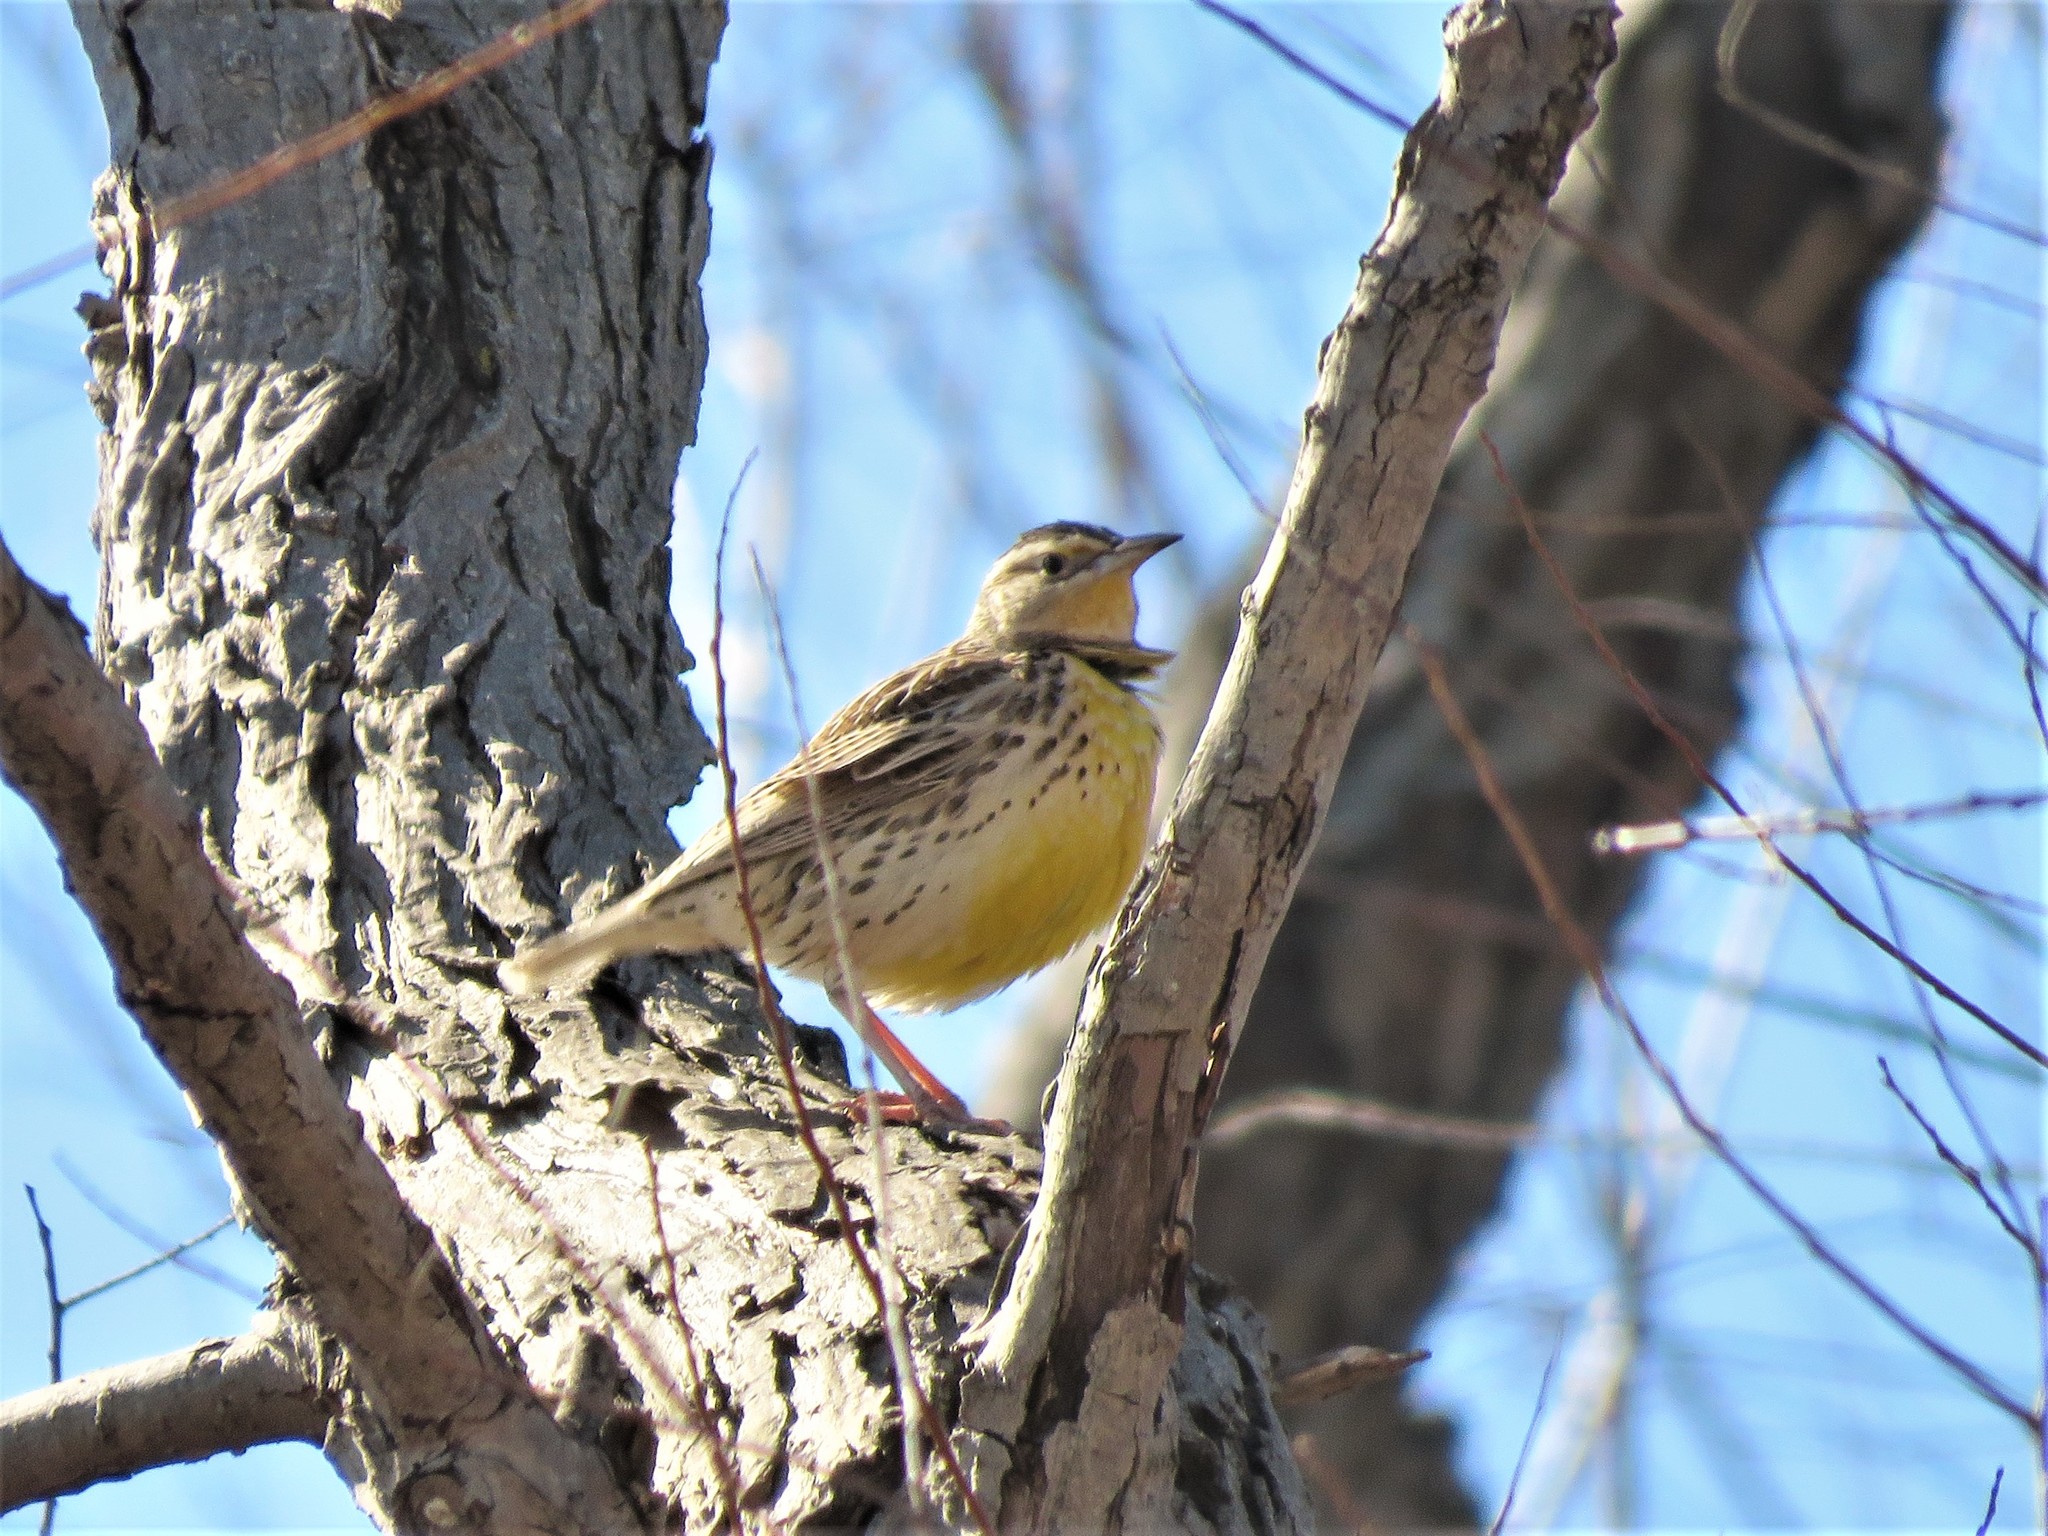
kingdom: Animalia
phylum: Chordata
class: Aves
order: Passeriformes
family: Icteridae
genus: Sturnella
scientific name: Sturnella
